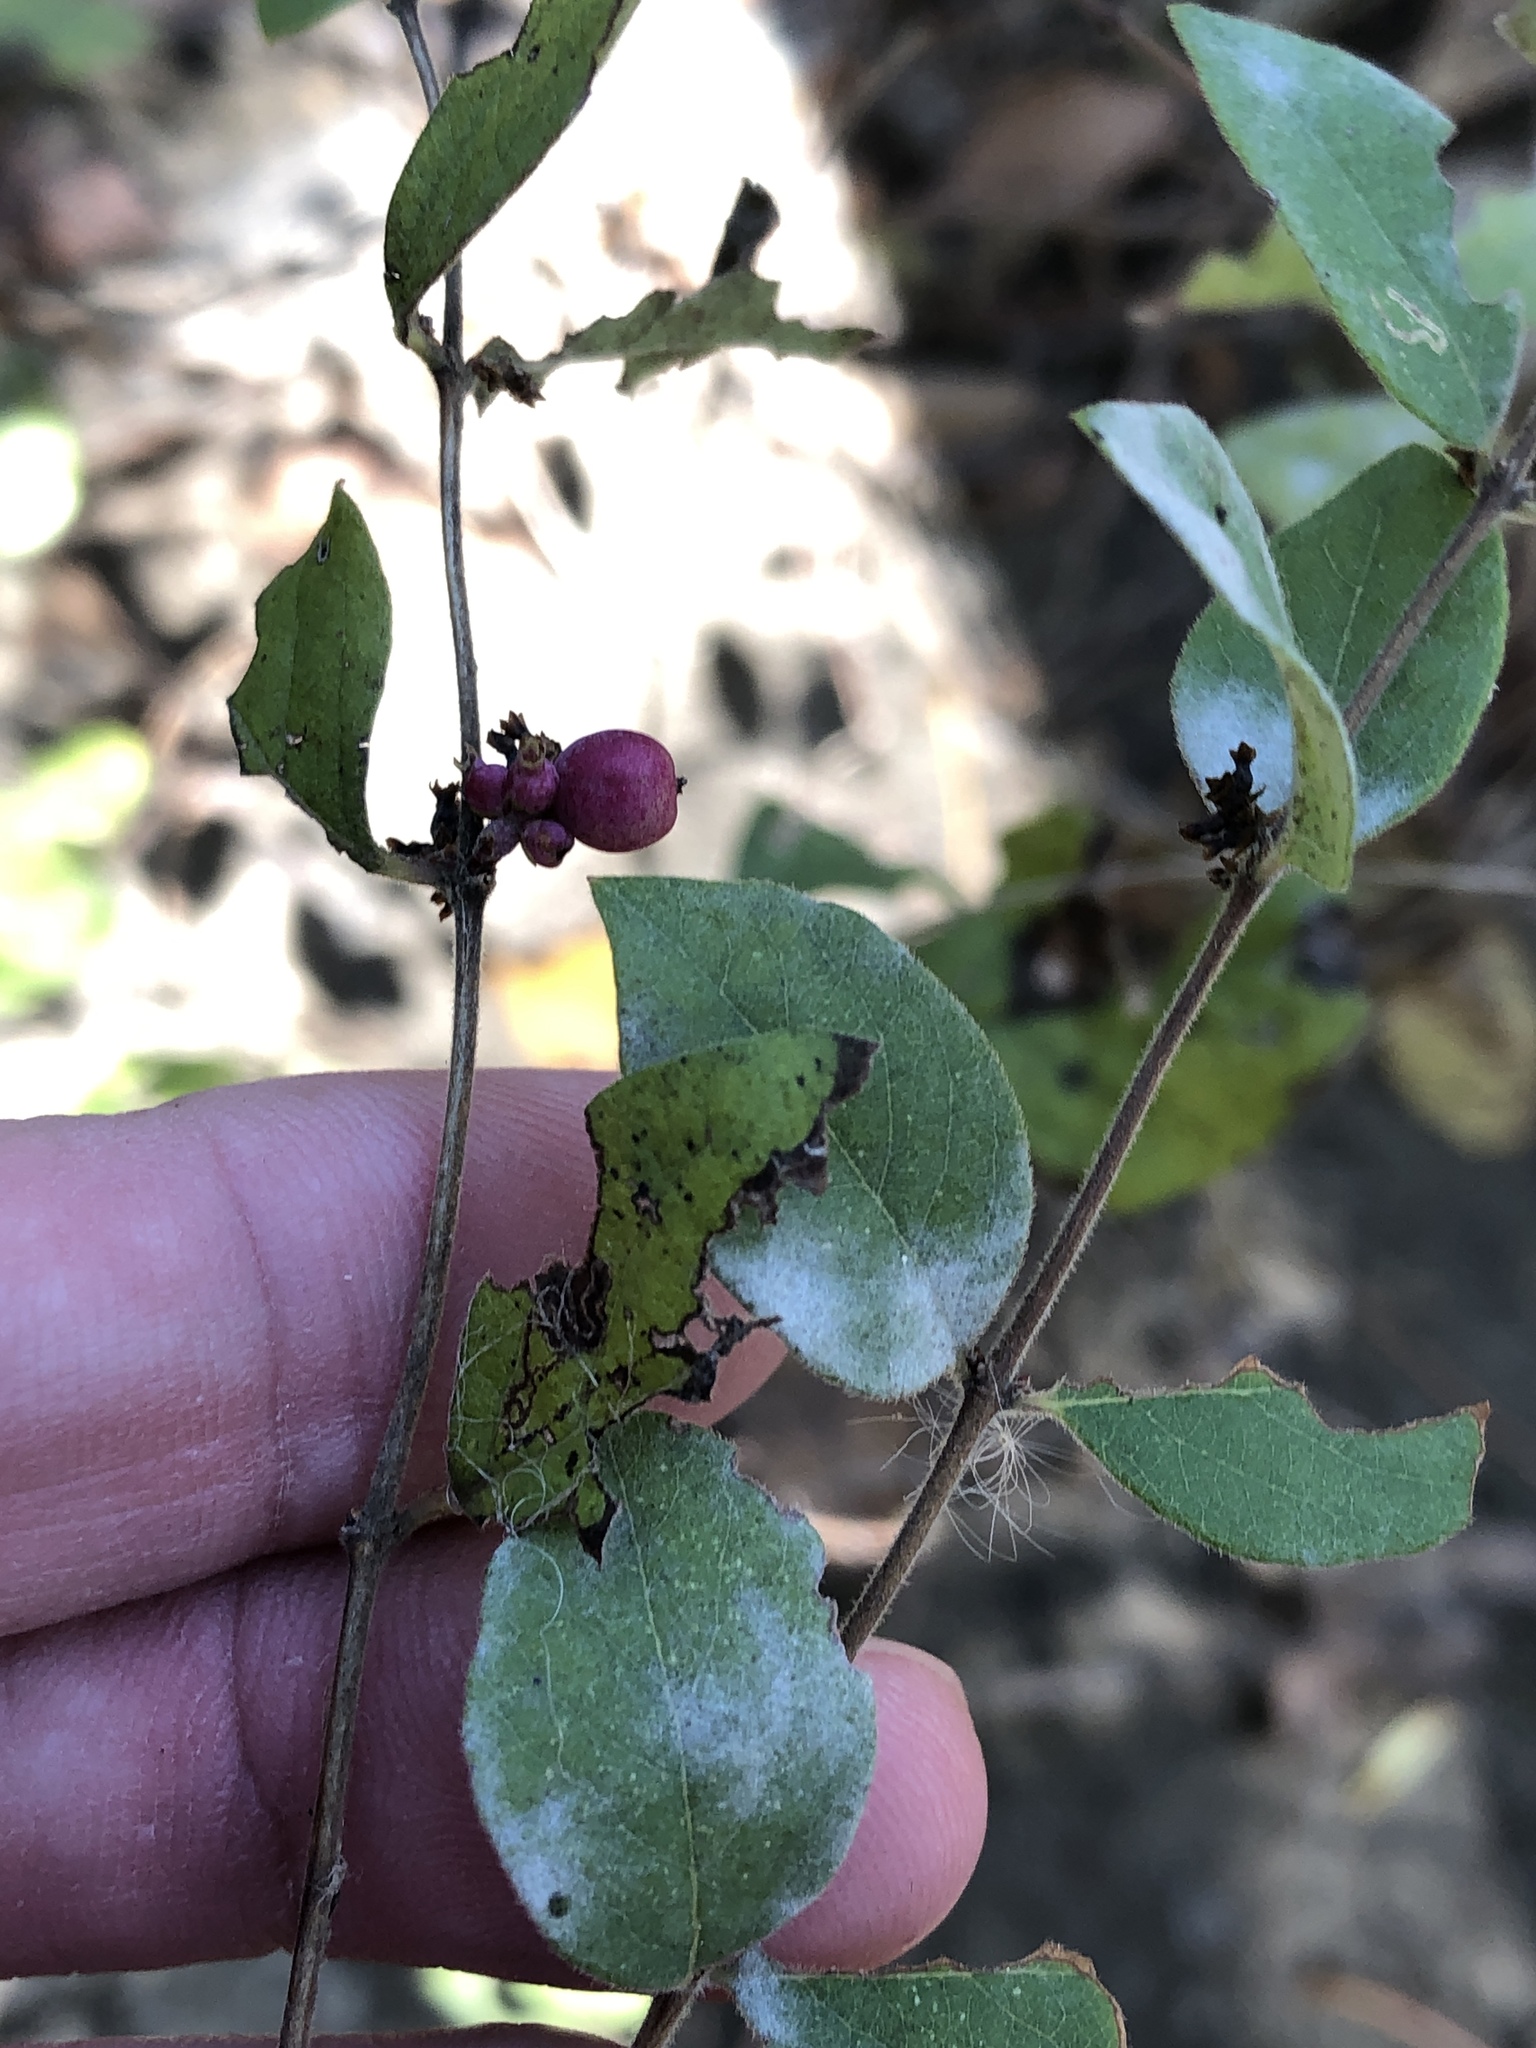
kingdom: Plantae
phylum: Tracheophyta
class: Magnoliopsida
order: Dipsacales
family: Caprifoliaceae
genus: Symphoricarpos
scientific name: Symphoricarpos orbiculatus
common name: Coralberry
